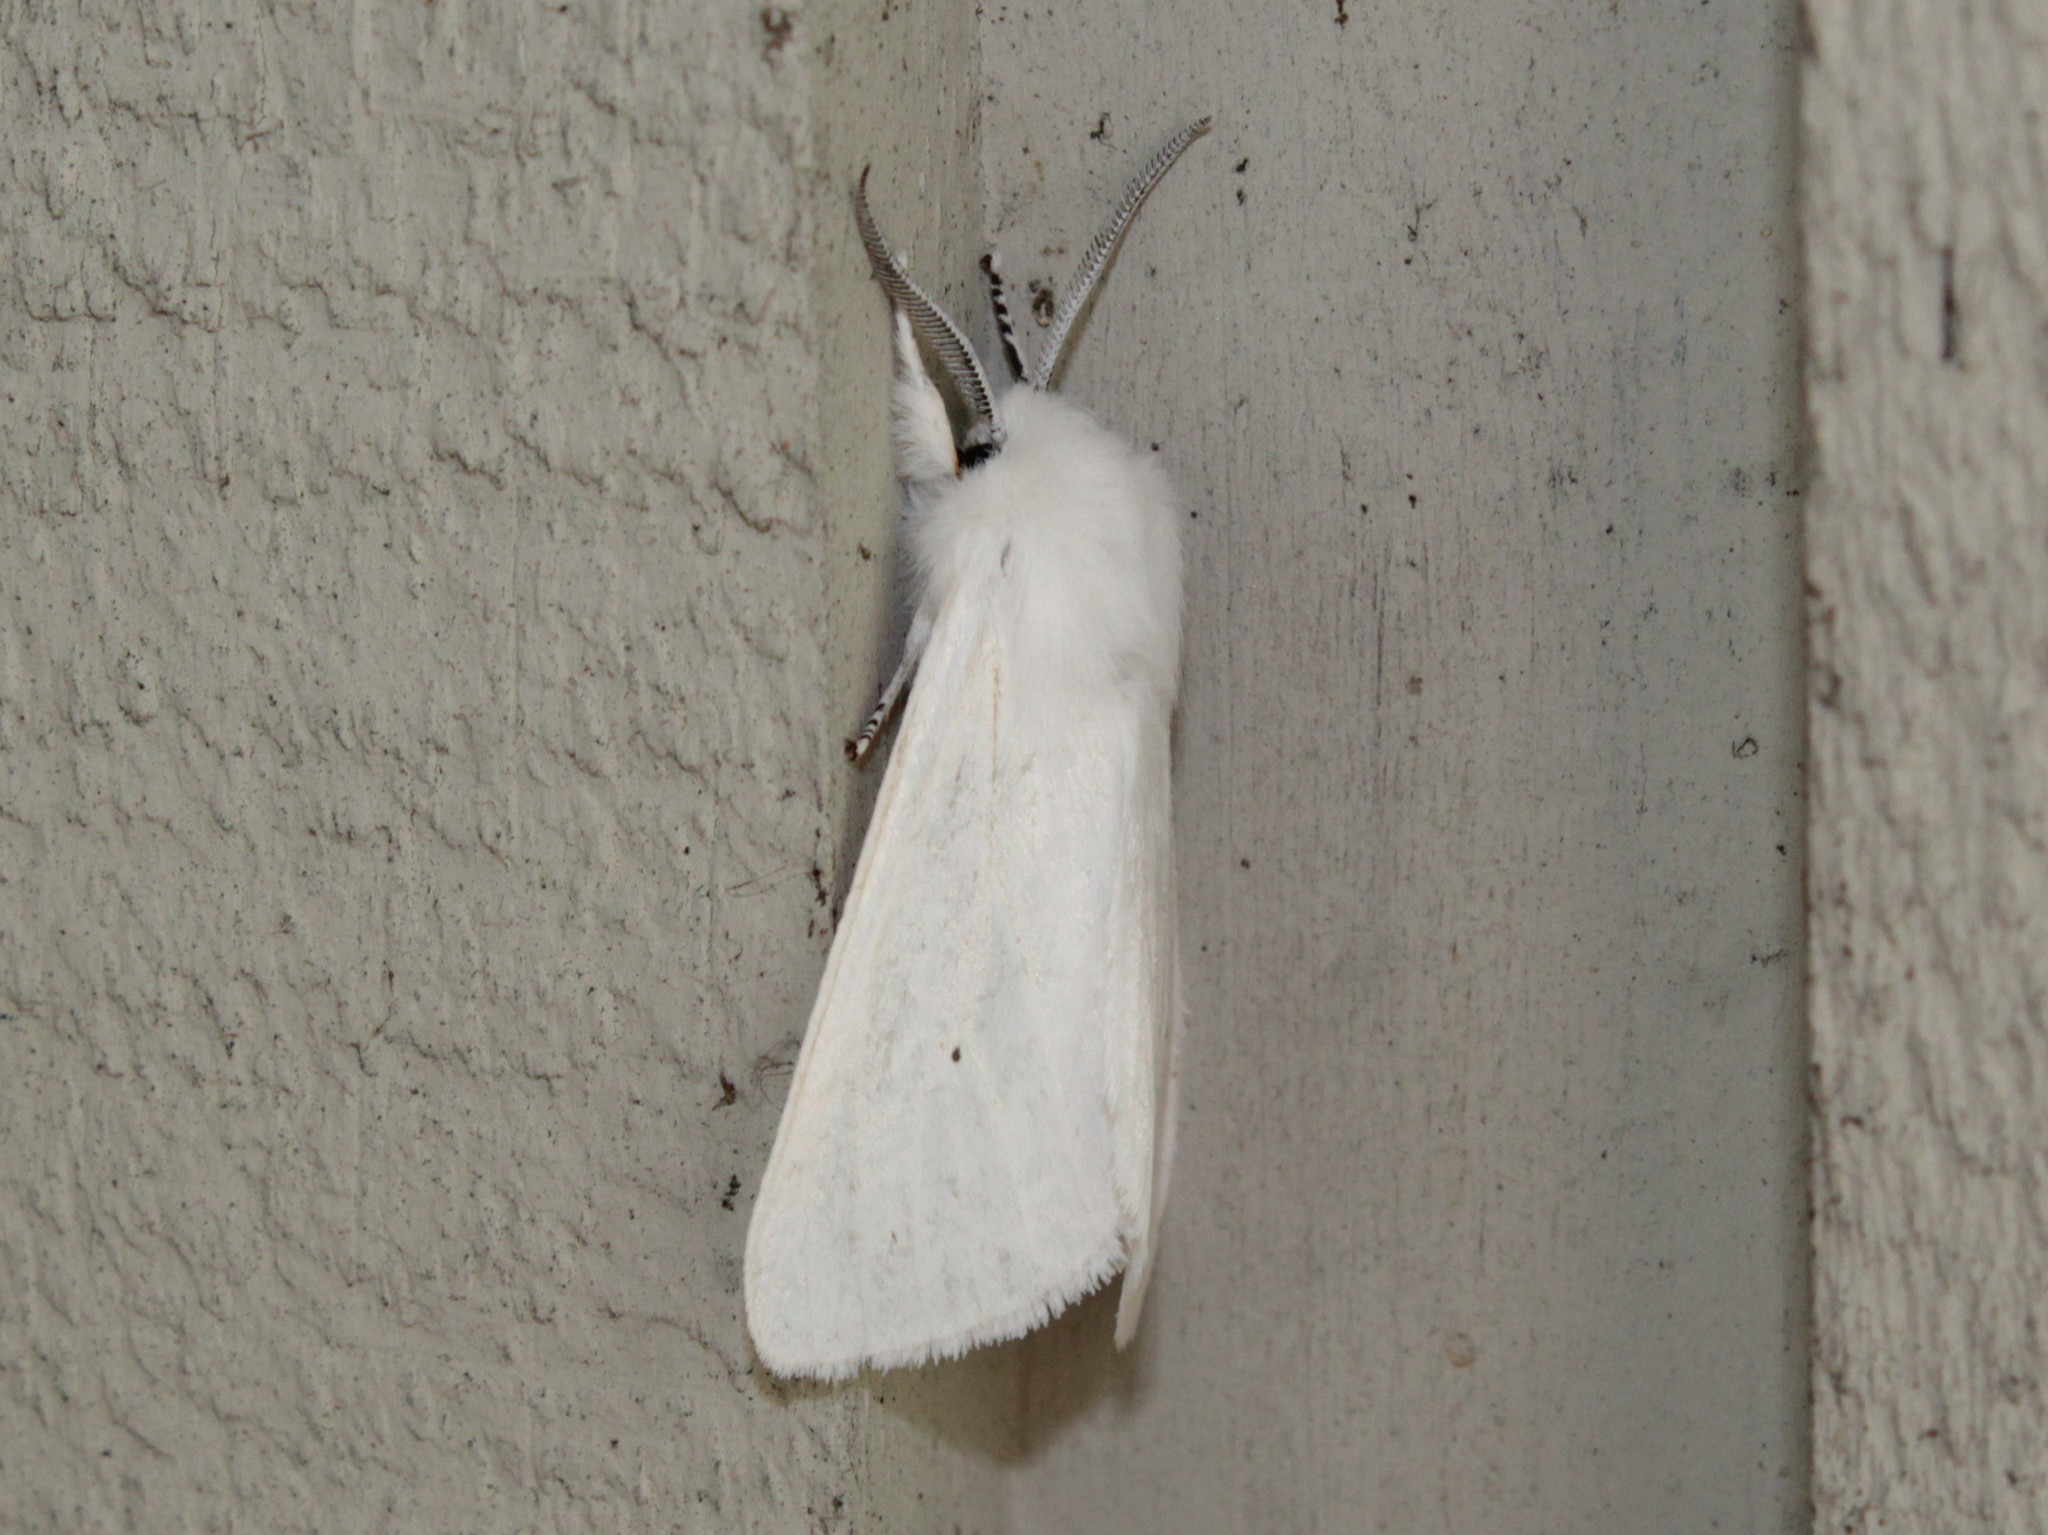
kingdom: Animalia
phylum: Arthropoda
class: Insecta
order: Lepidoptera
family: Erebidae
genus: Spilosoma
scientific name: Spilosoma virginica
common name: Virginia tiger moth
